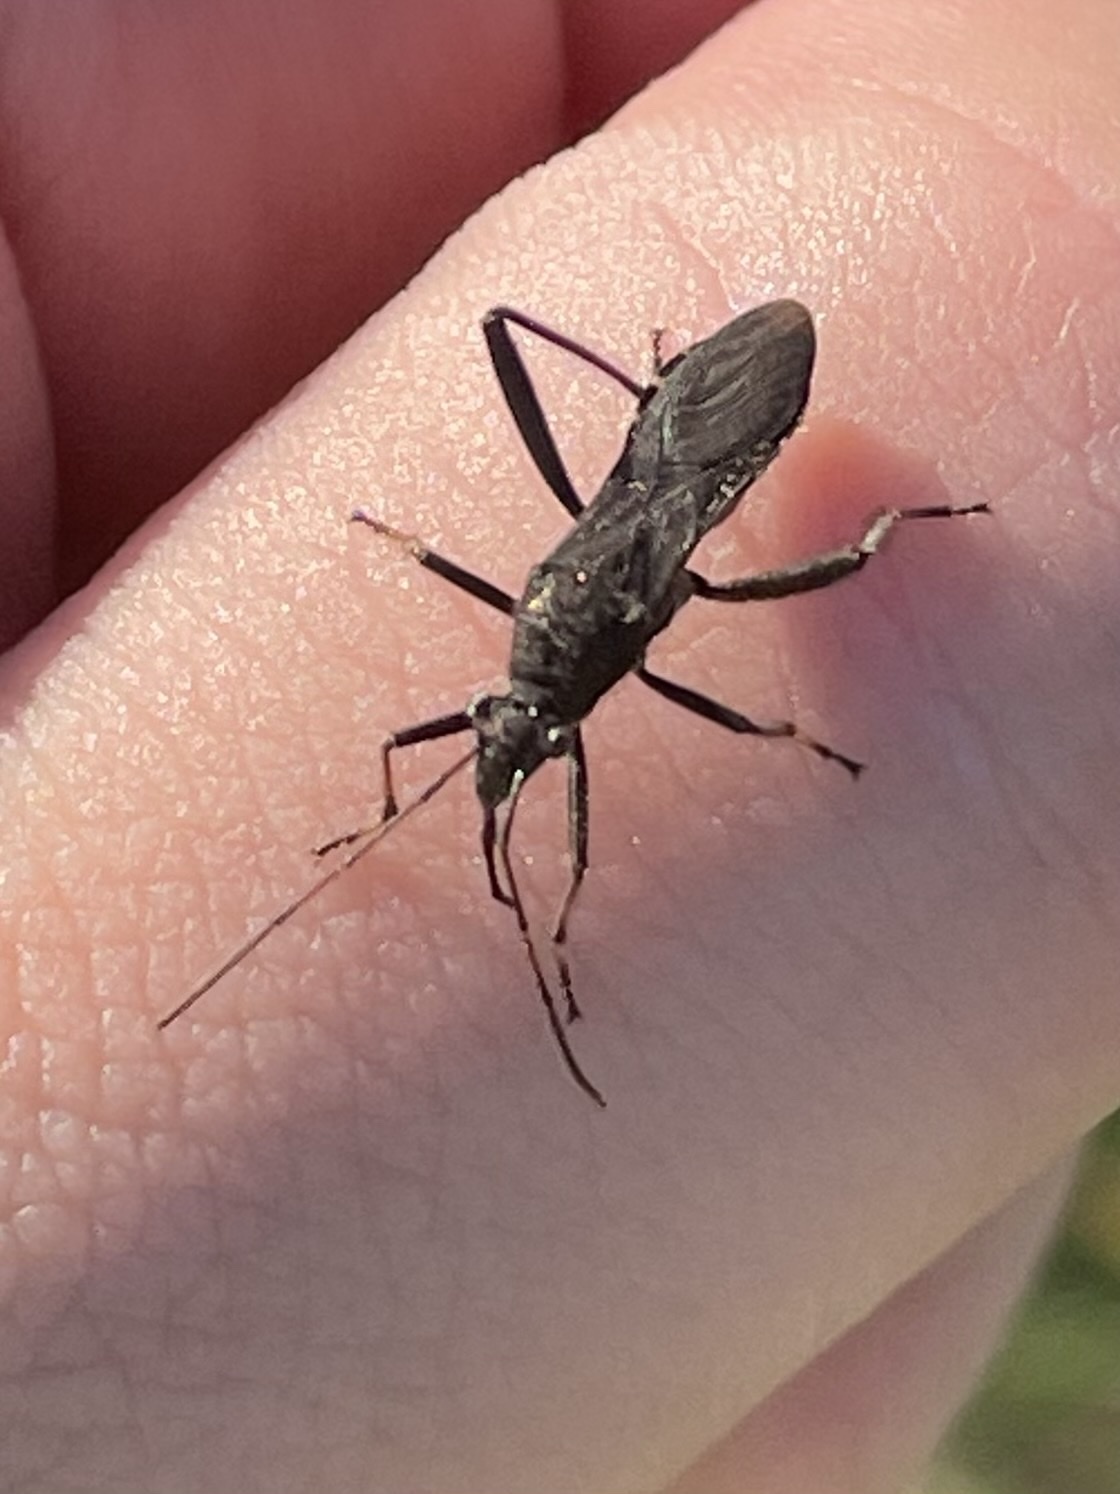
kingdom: Animalia
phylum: Arthropoda
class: Insecta
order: Hemiptera
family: Alydidae
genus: Alydus
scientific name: Alydus eurinus
